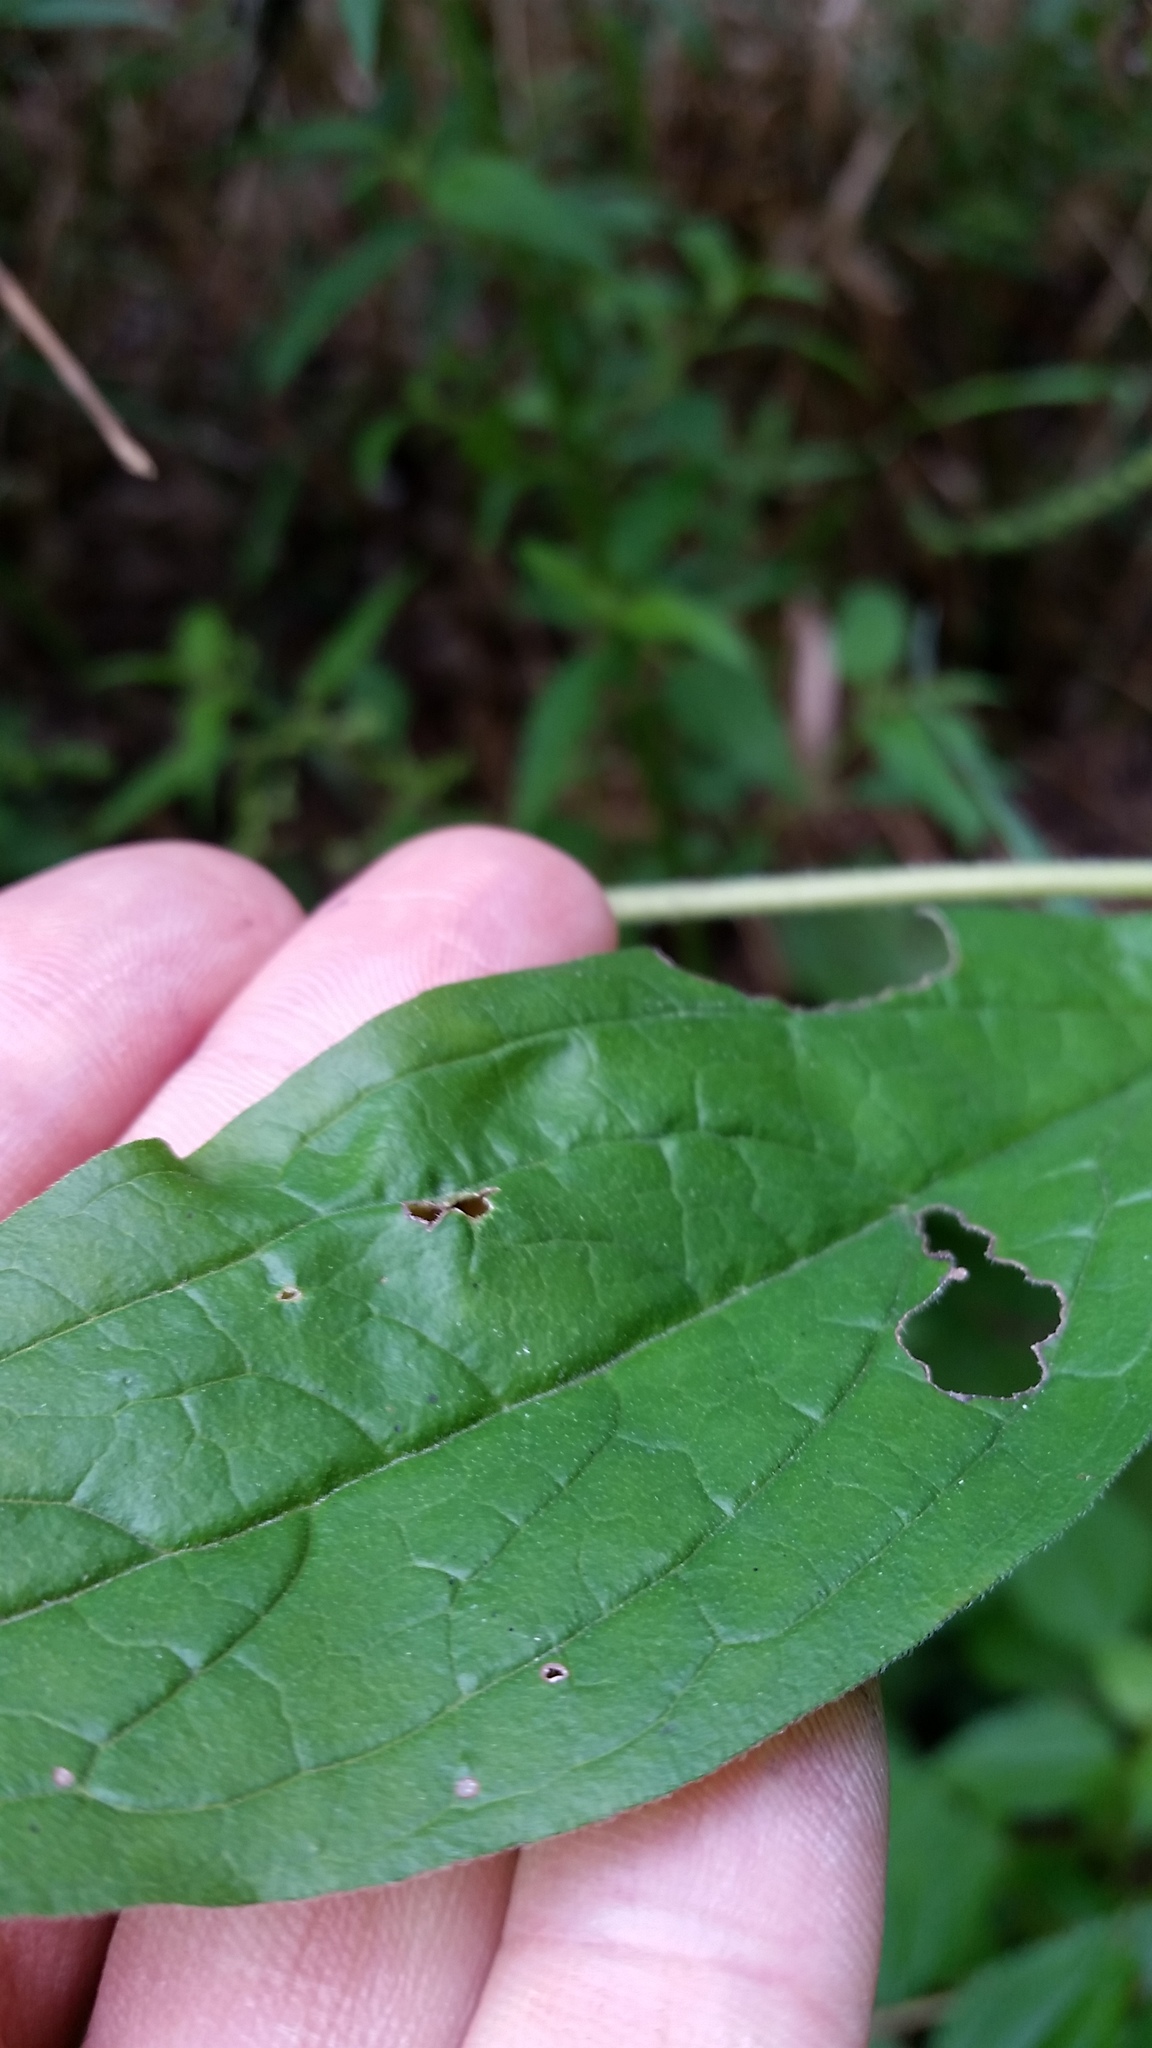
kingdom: Plantae
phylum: Tracheophyta
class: Magnoliopsida
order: Boraginales
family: Boraginaceae
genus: Hackelia
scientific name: Hackelia virginiana
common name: Beggar's-lice
